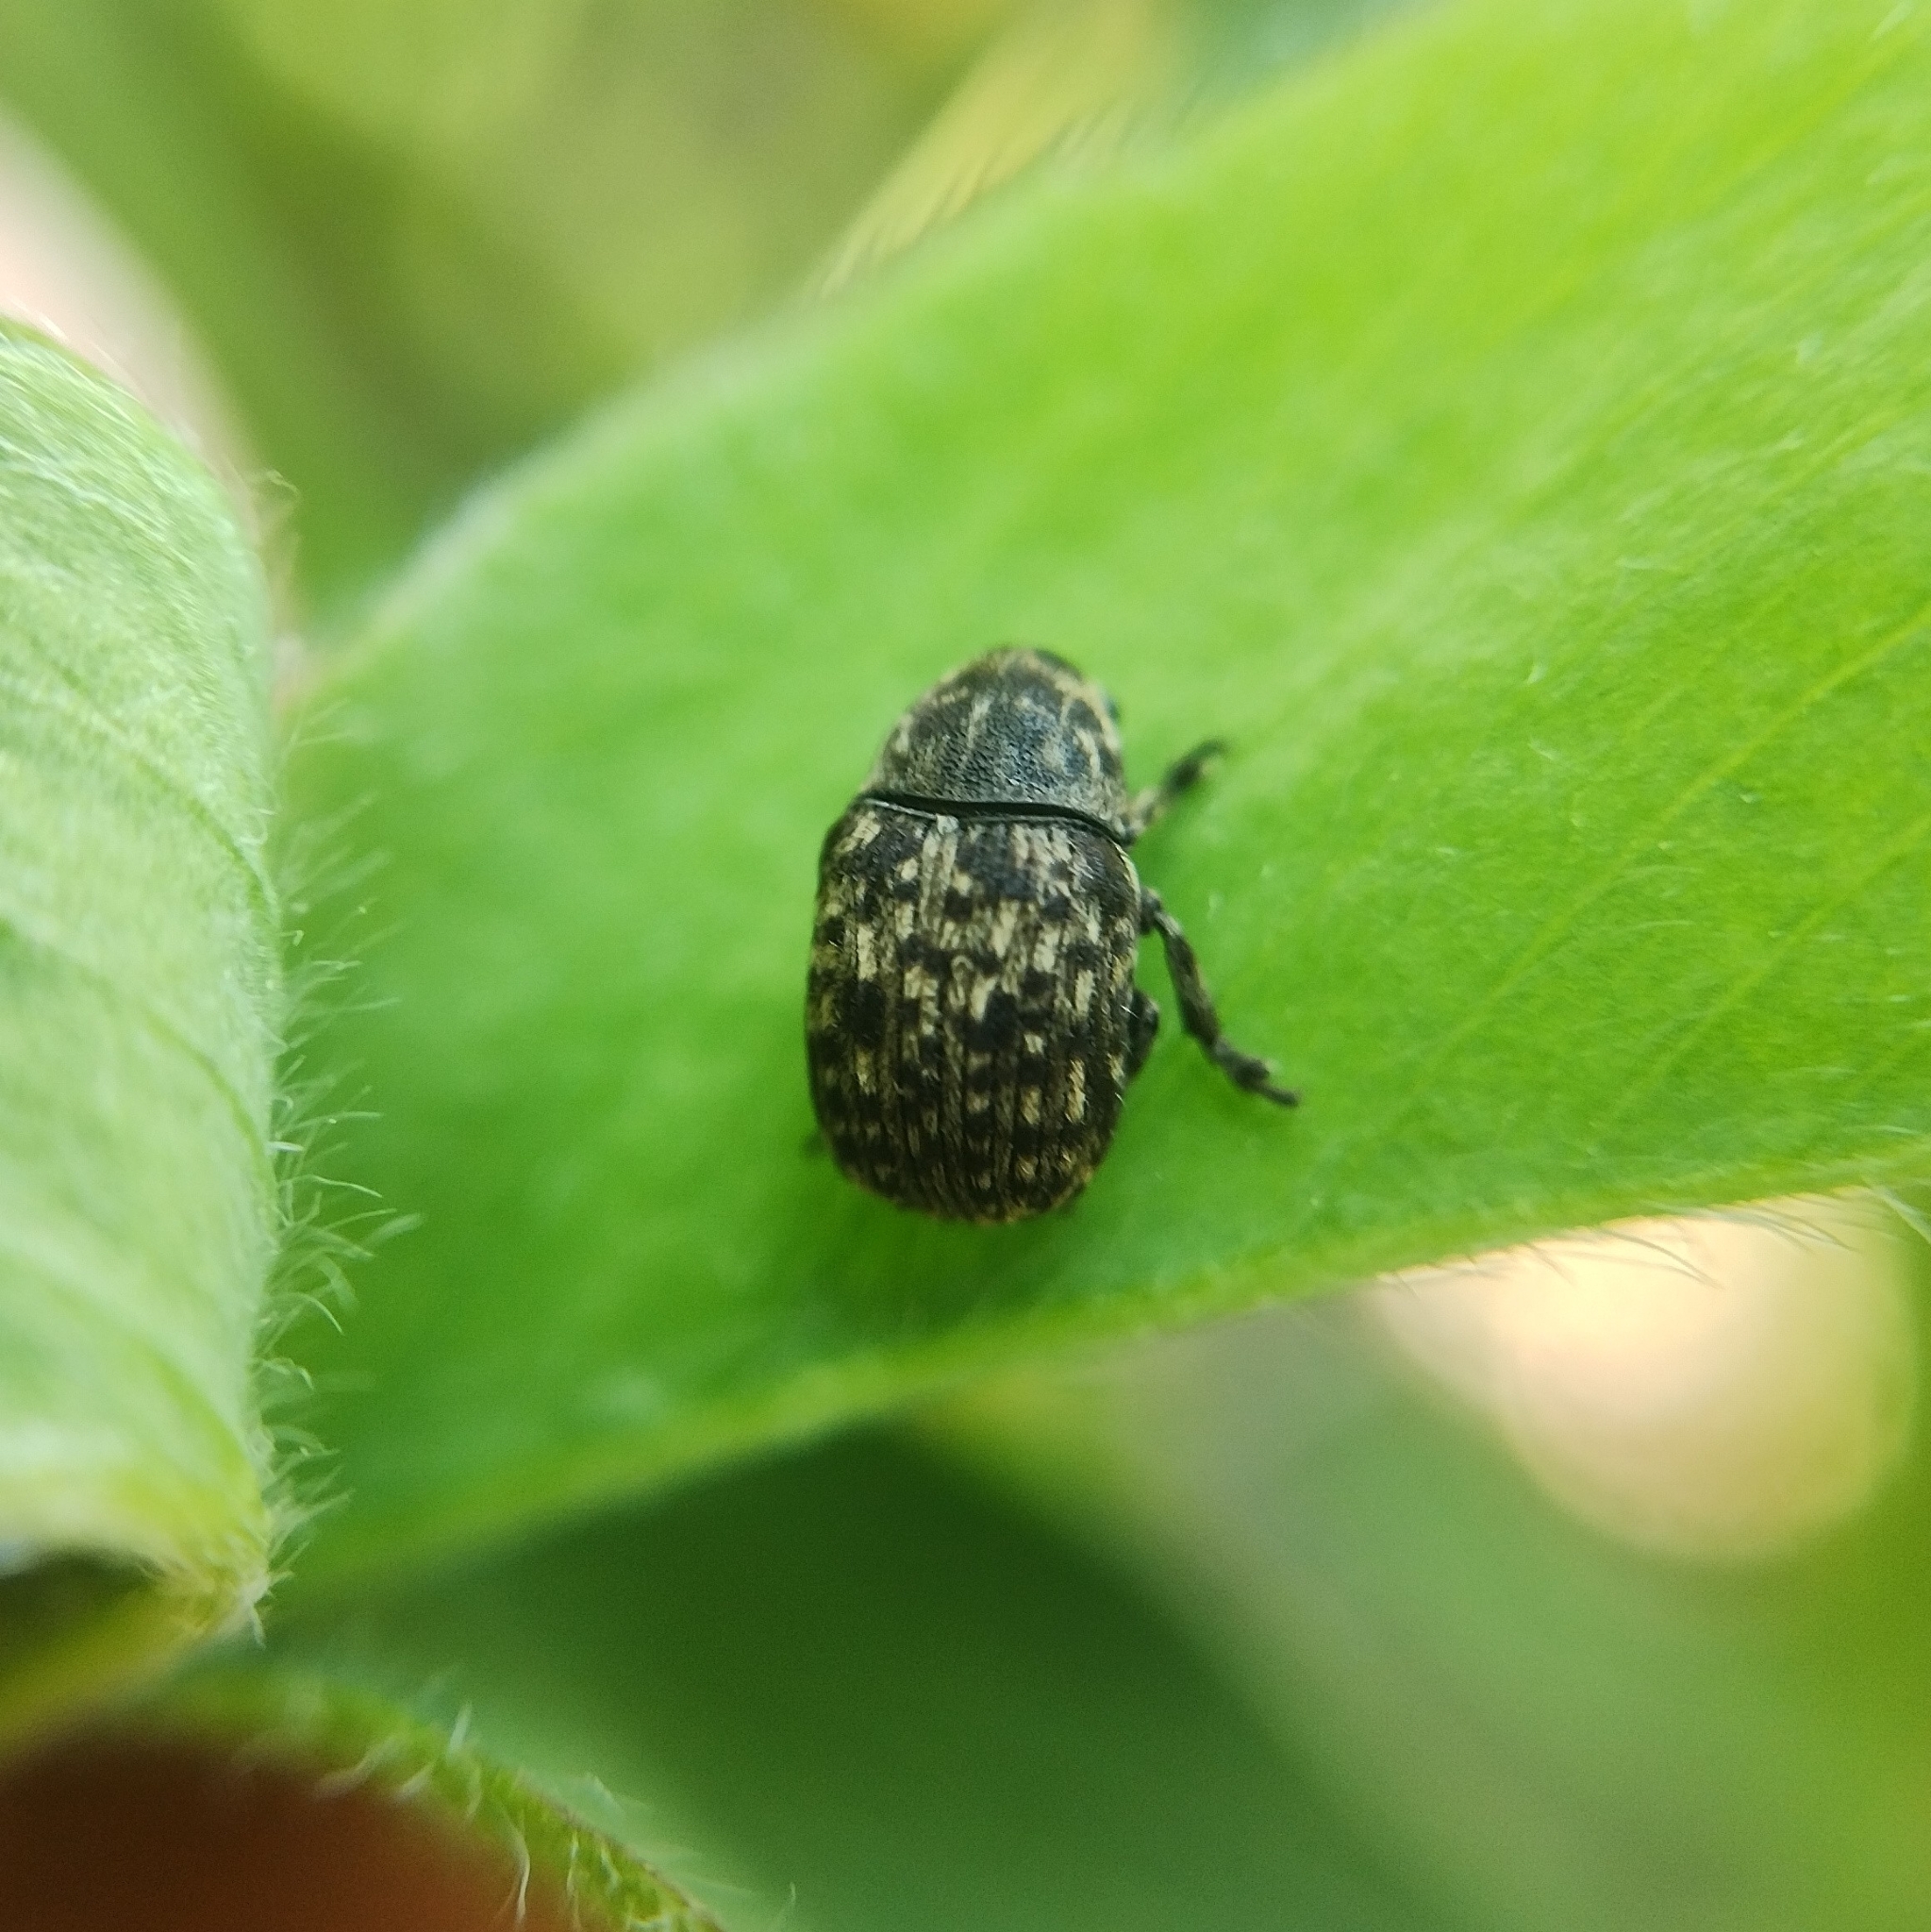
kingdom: Animalia
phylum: Arthropoda
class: Insecta
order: Coleoptera
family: Anthribidae
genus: Anthribus
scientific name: Anthribus nebulosus
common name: Fungus weevil
